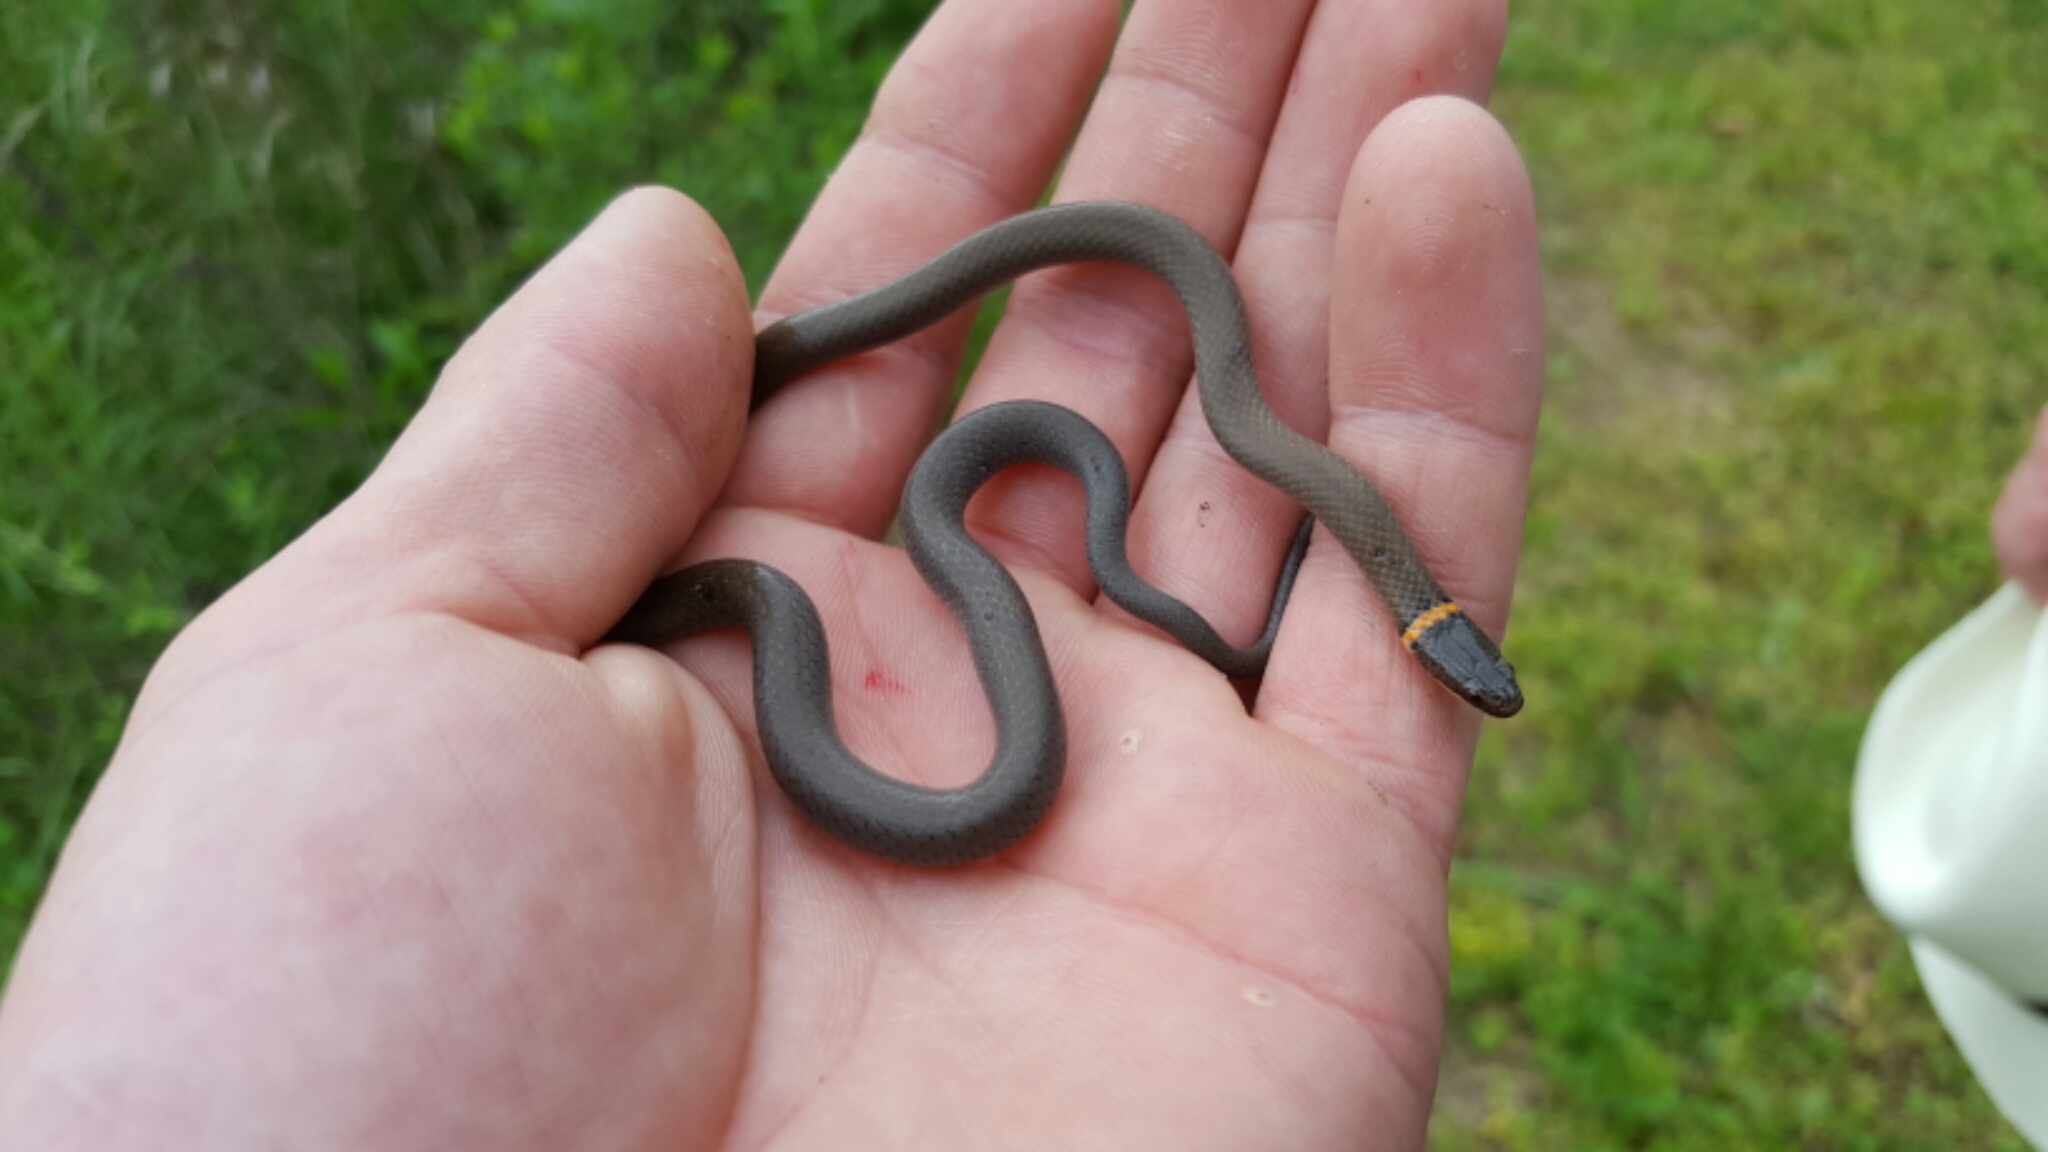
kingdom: Animalia
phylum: Chordata
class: Squamata
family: Colubridae
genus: Diadophis
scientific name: Diadophis punctatus
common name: Ringneck snake
